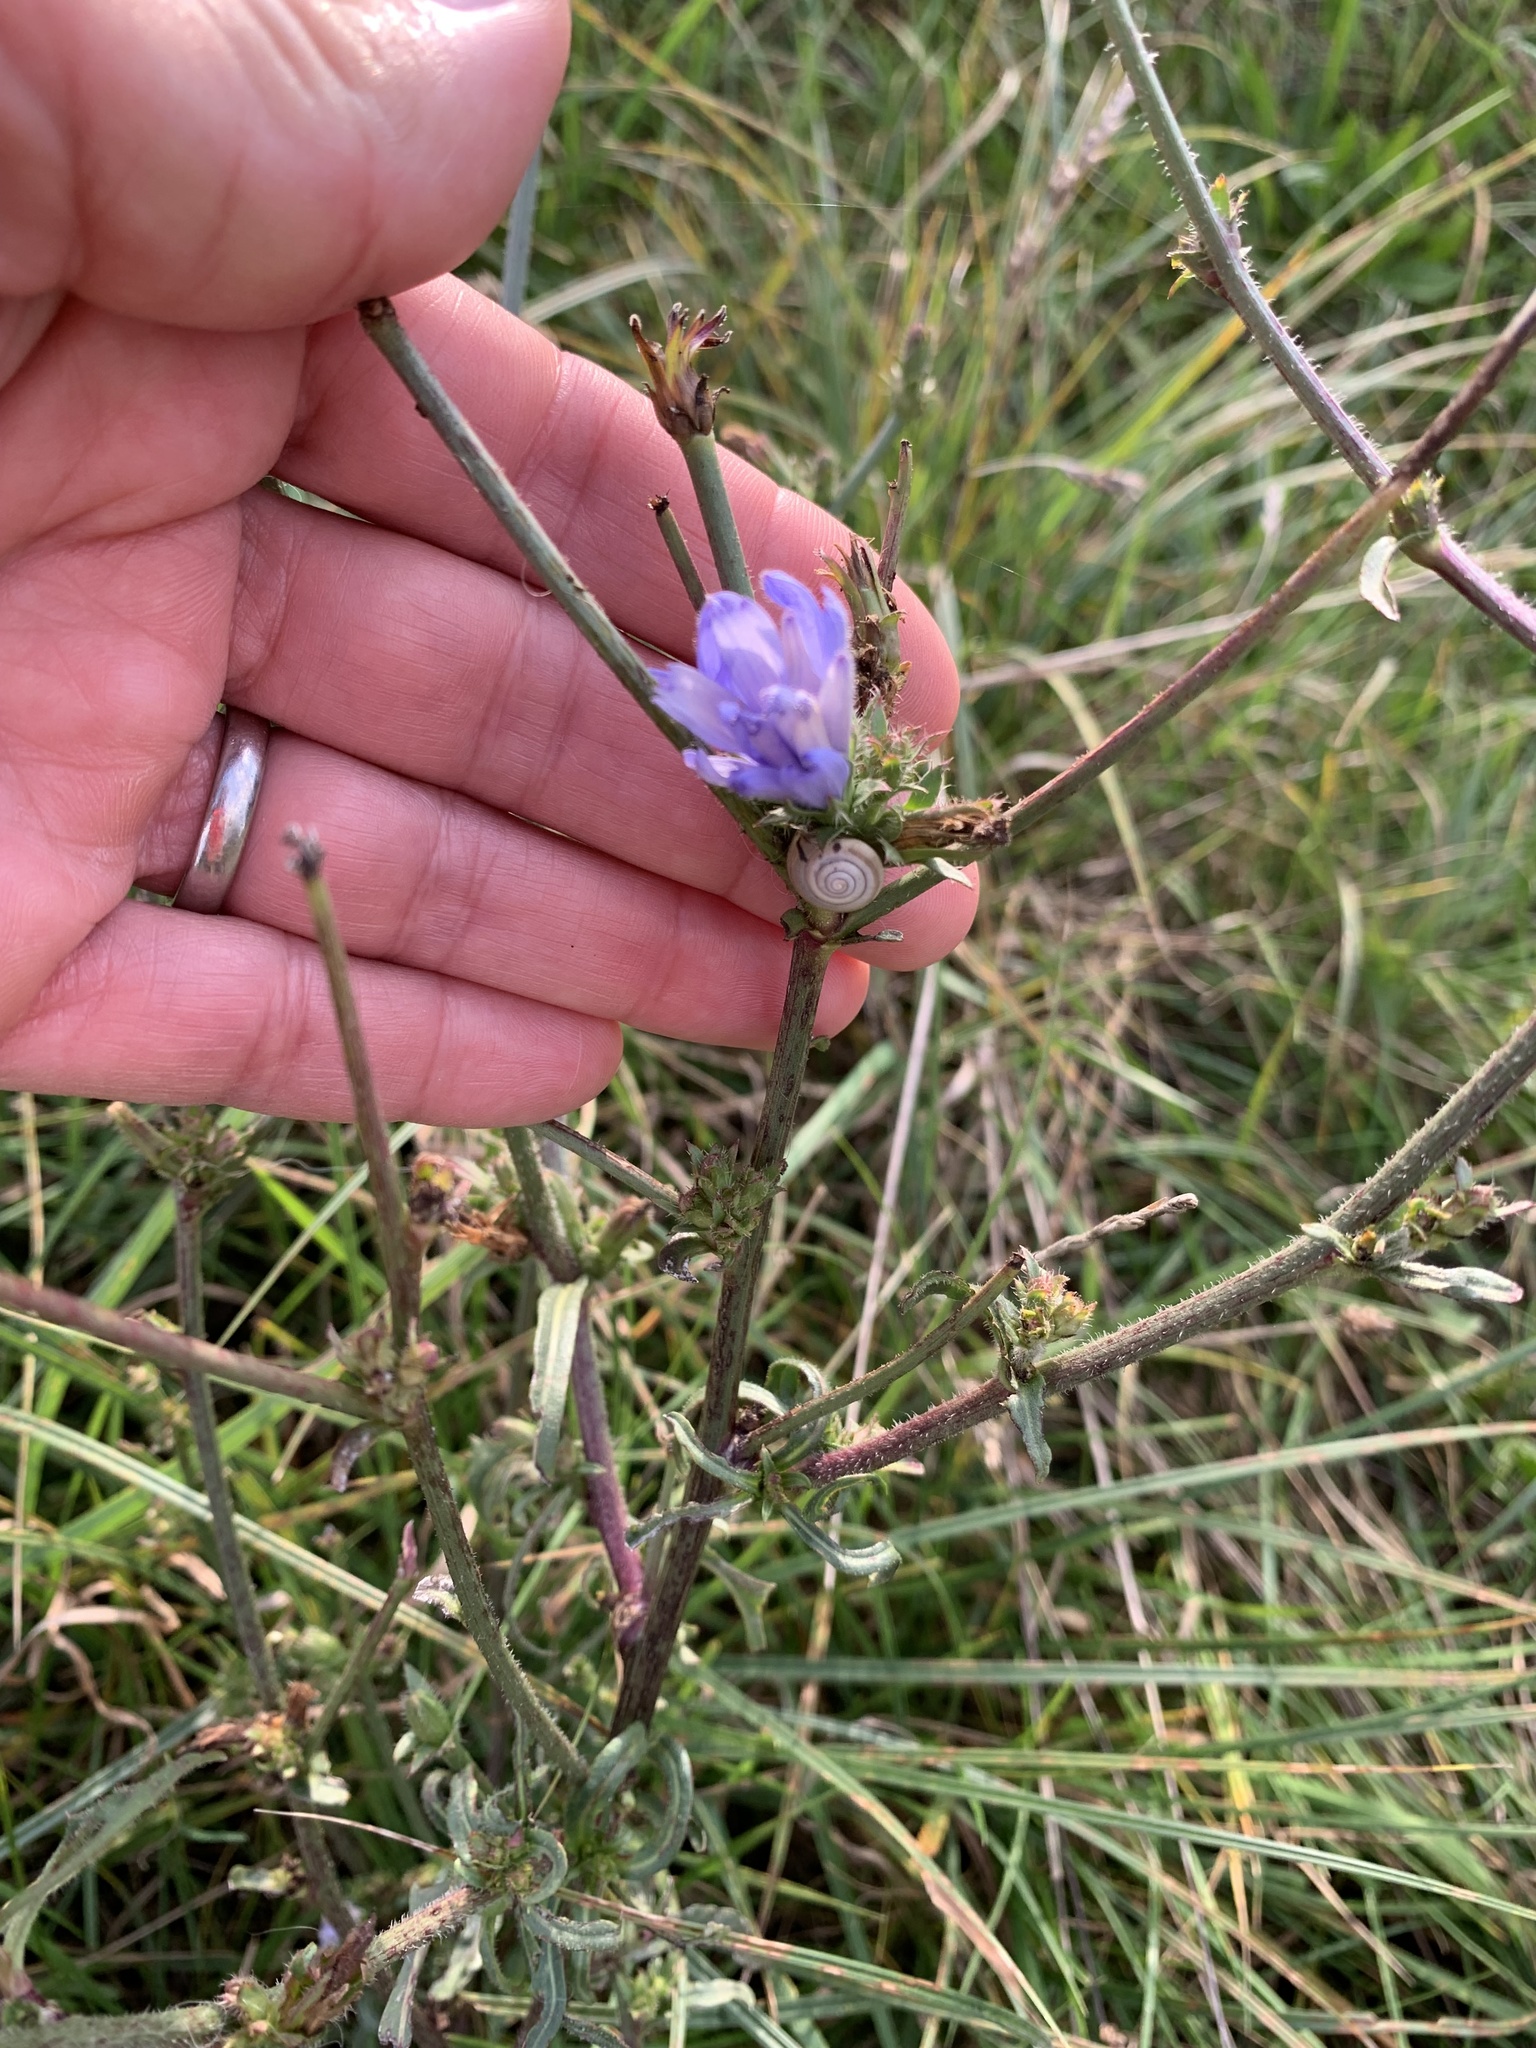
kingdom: Plantae
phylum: Tracheophyta
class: Magnoliopsida
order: Asterales
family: Asteraceae
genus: Cichorium
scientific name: Cichorium intybus
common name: Chicory
